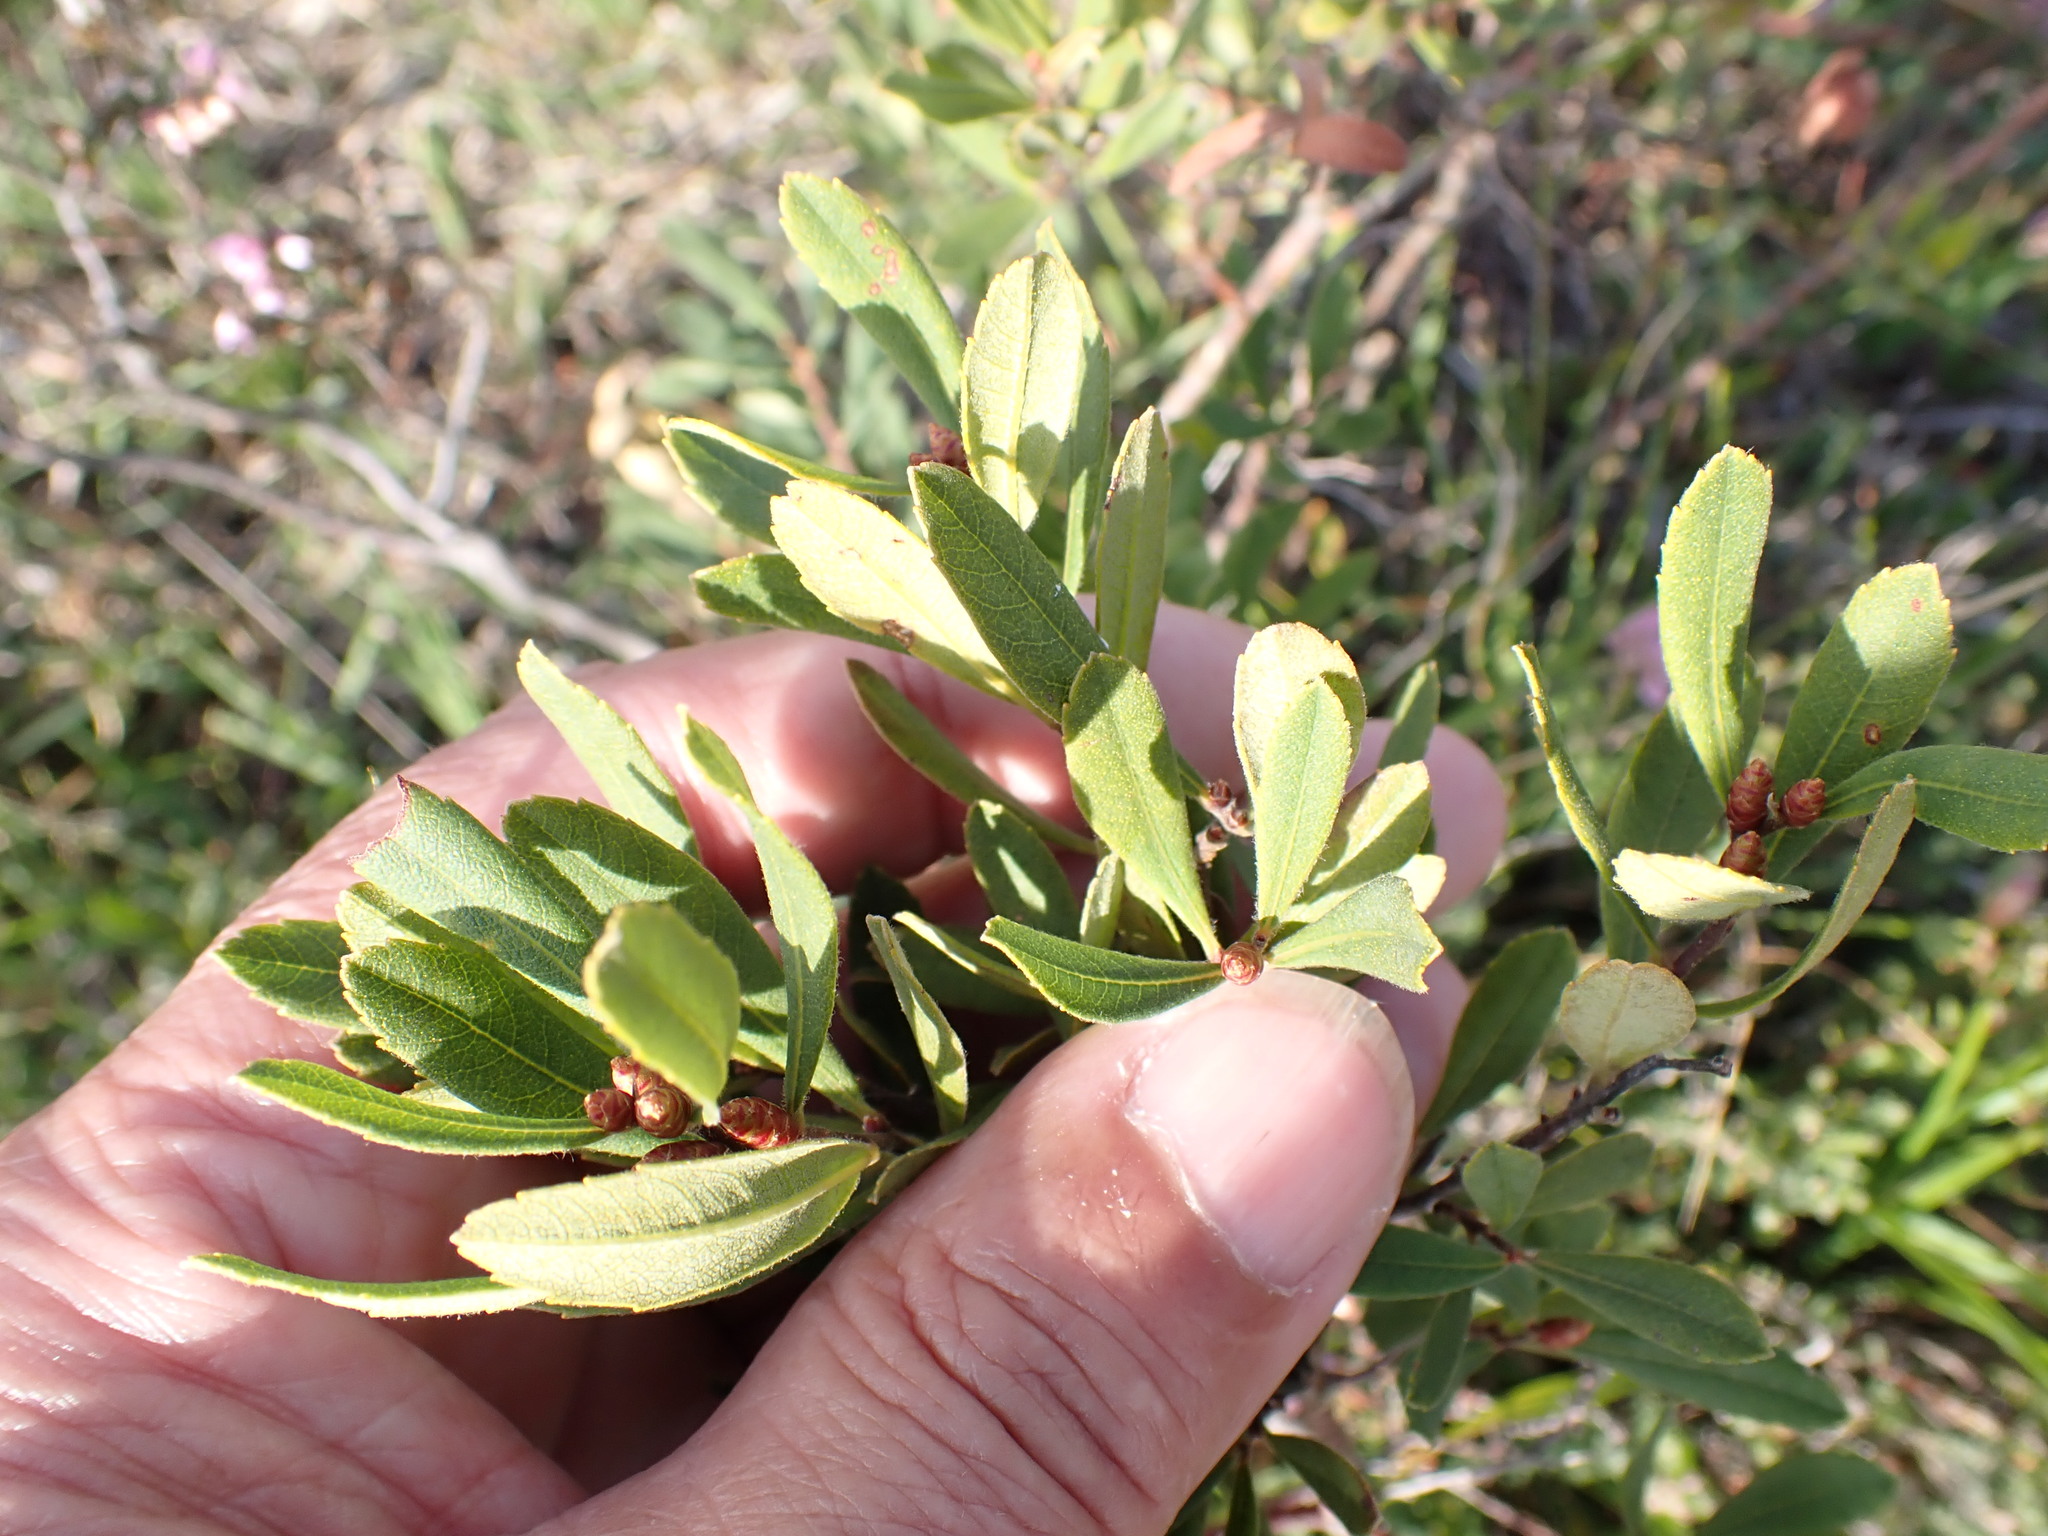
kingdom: Plantae
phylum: Tracheophyta
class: Magnoliopsida
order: Fagales
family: Myricaceae
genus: Myrica
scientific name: Myrica gale
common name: Sweet gale
